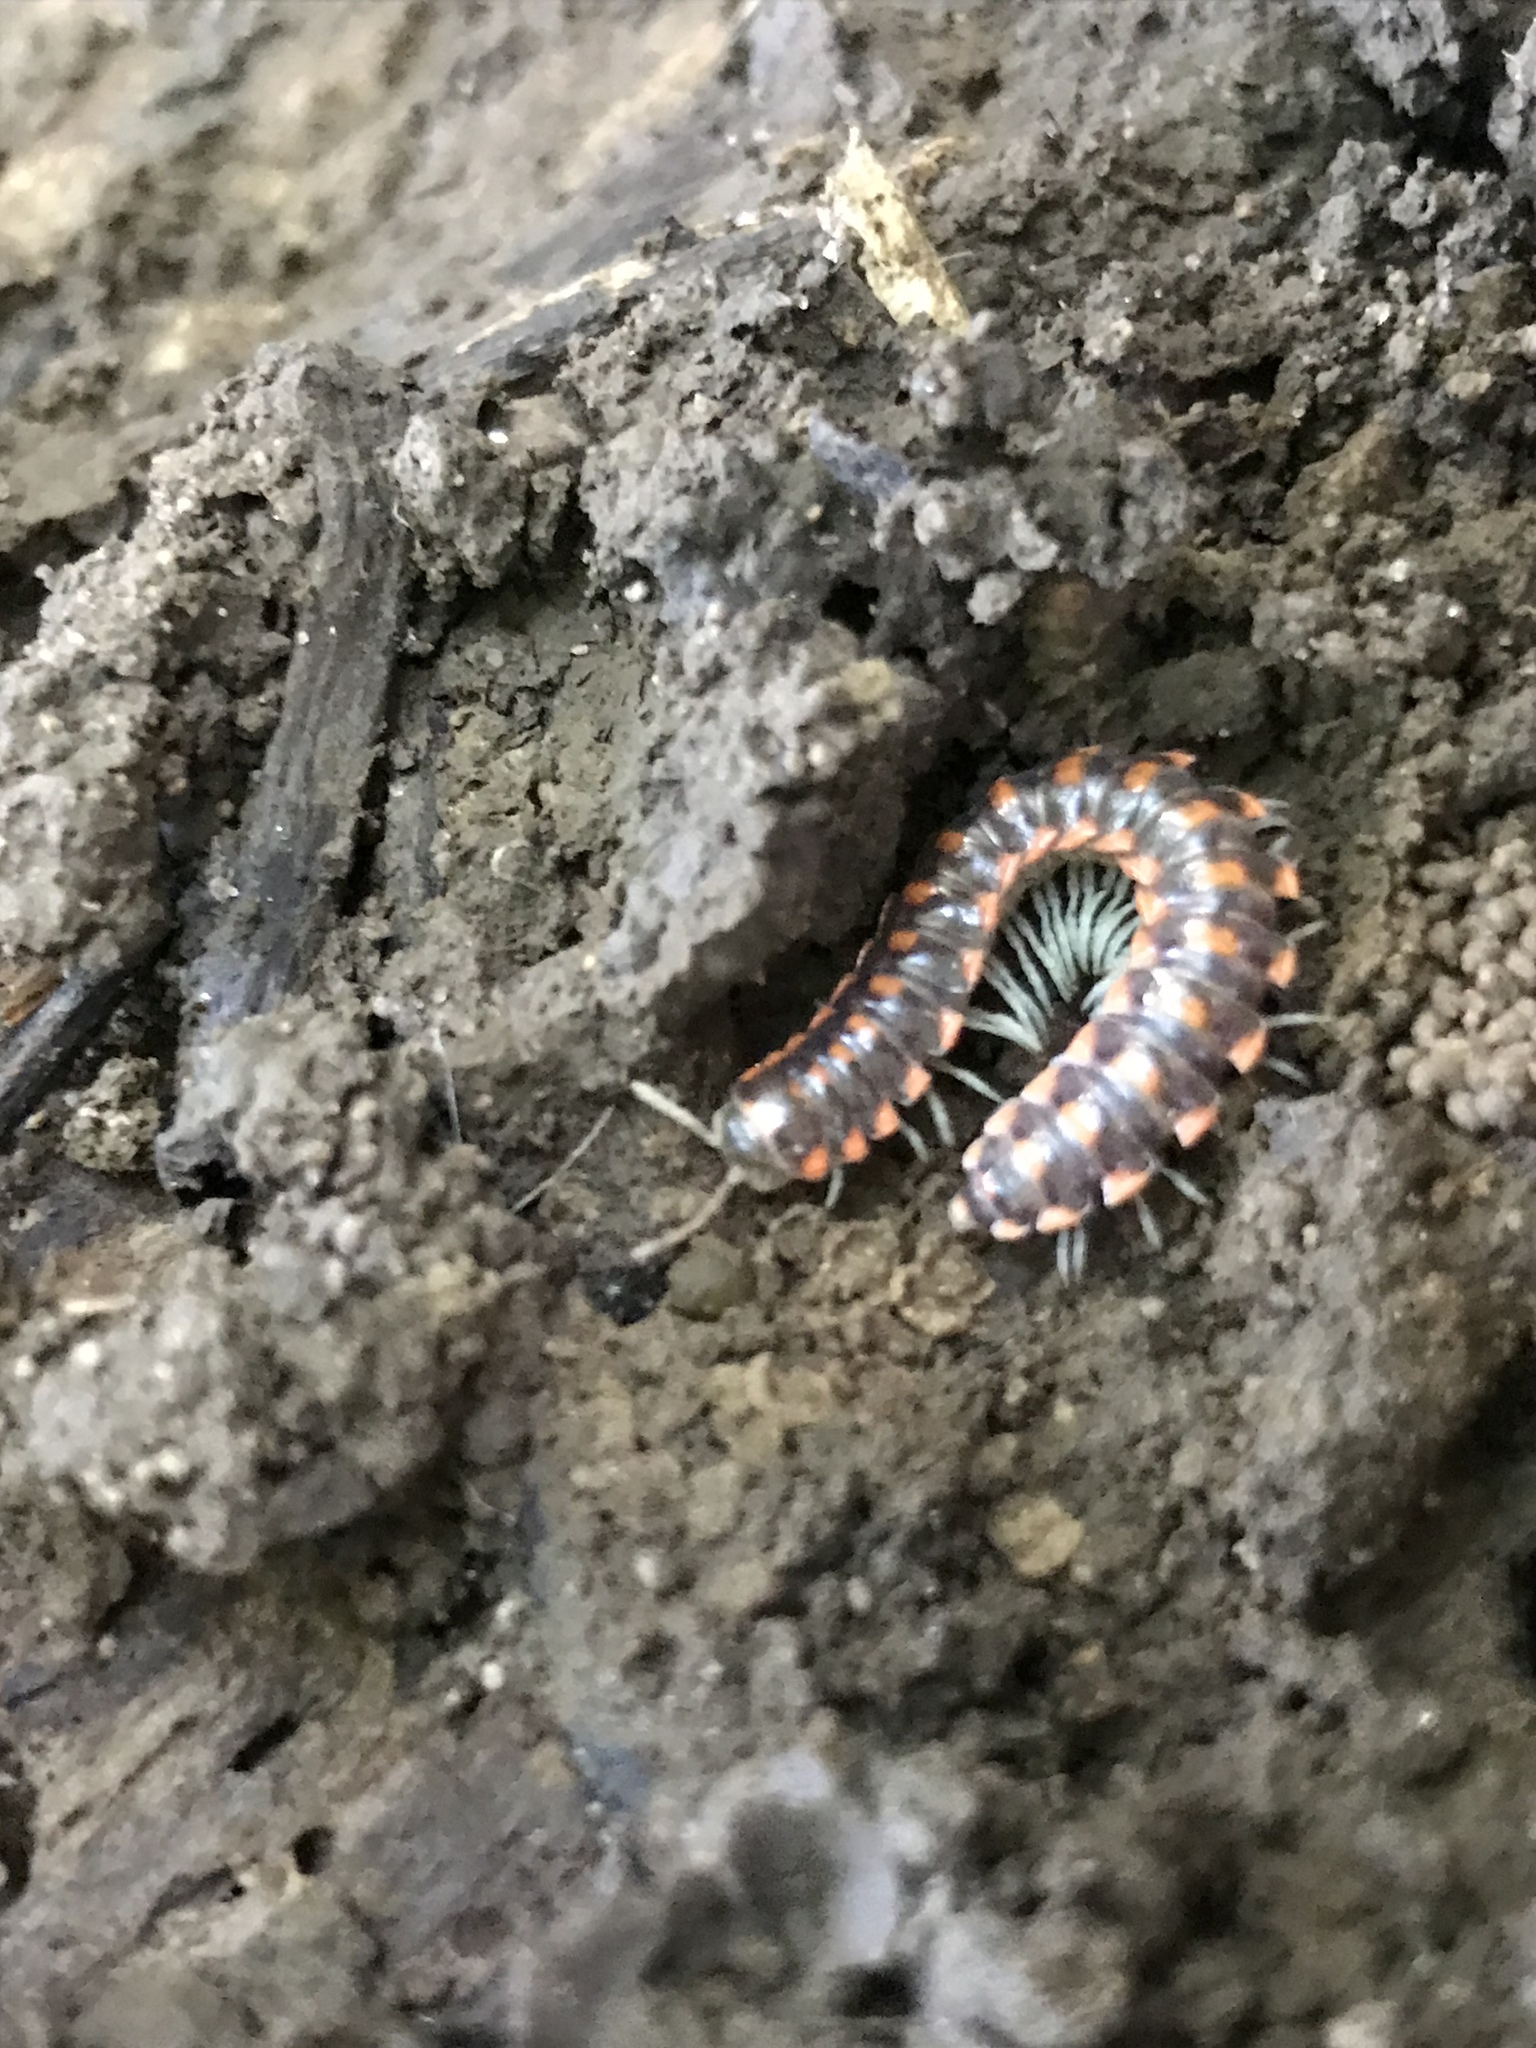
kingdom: Animalia
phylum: Arthropoda
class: Diplopoda
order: Polydesmida
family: Xystodesmidae
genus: Euryurus
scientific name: Euryurus leachii
